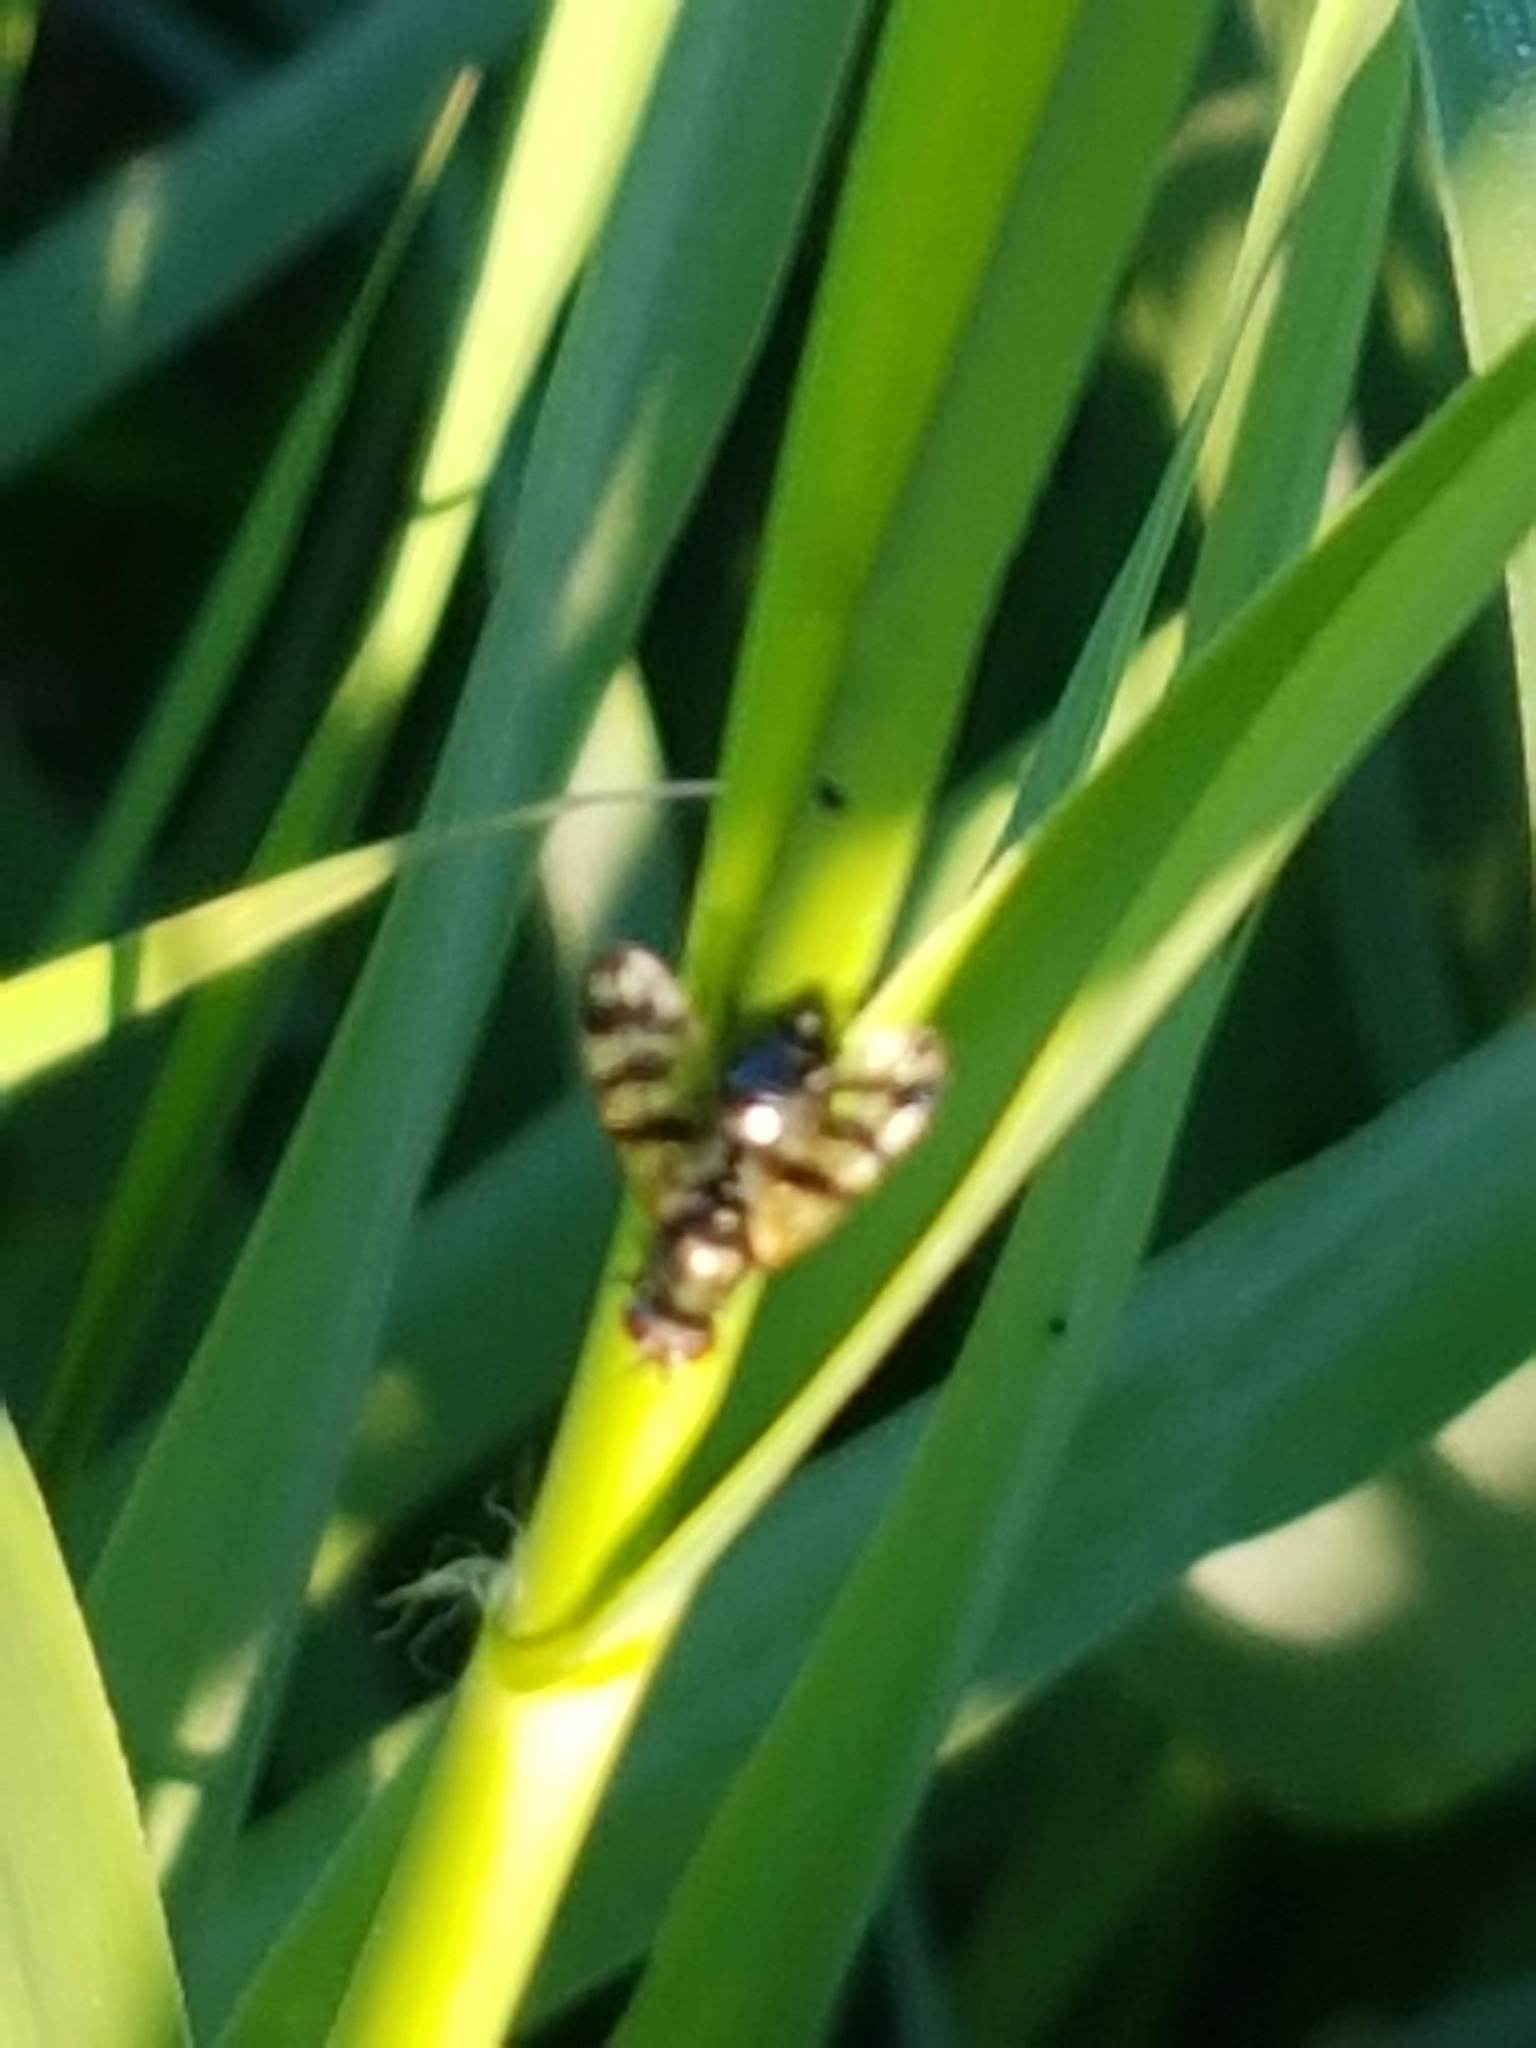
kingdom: Animalia
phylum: Arthropoda
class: Insecta
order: Diptera
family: Ulidiidae
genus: Ceroxys
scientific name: Ceroxys urticae
